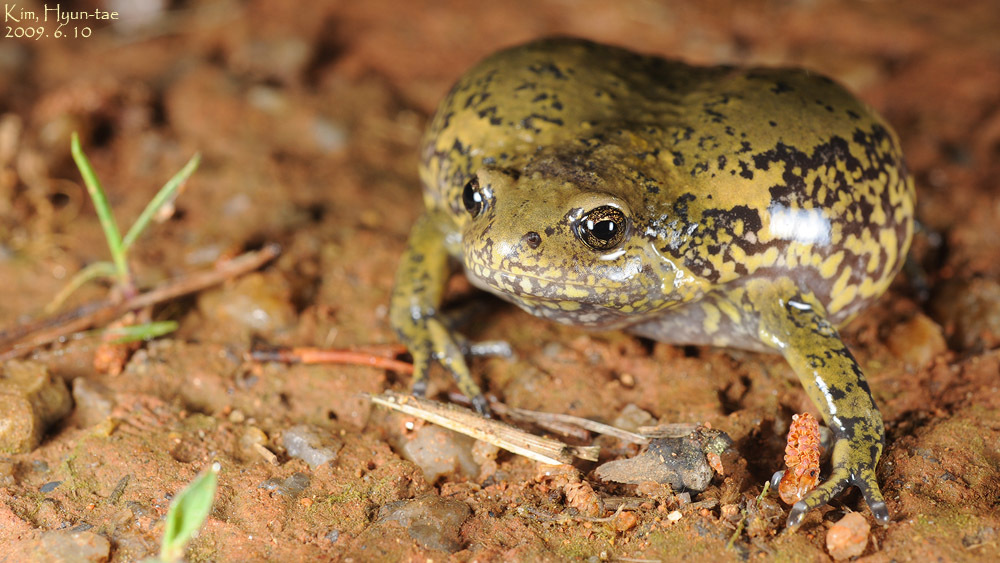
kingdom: Animalia
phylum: Chordata
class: Amphibia
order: Anura
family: Microhylidae
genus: Kaloula
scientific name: Kaloula borealis
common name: Boreal digging frog
